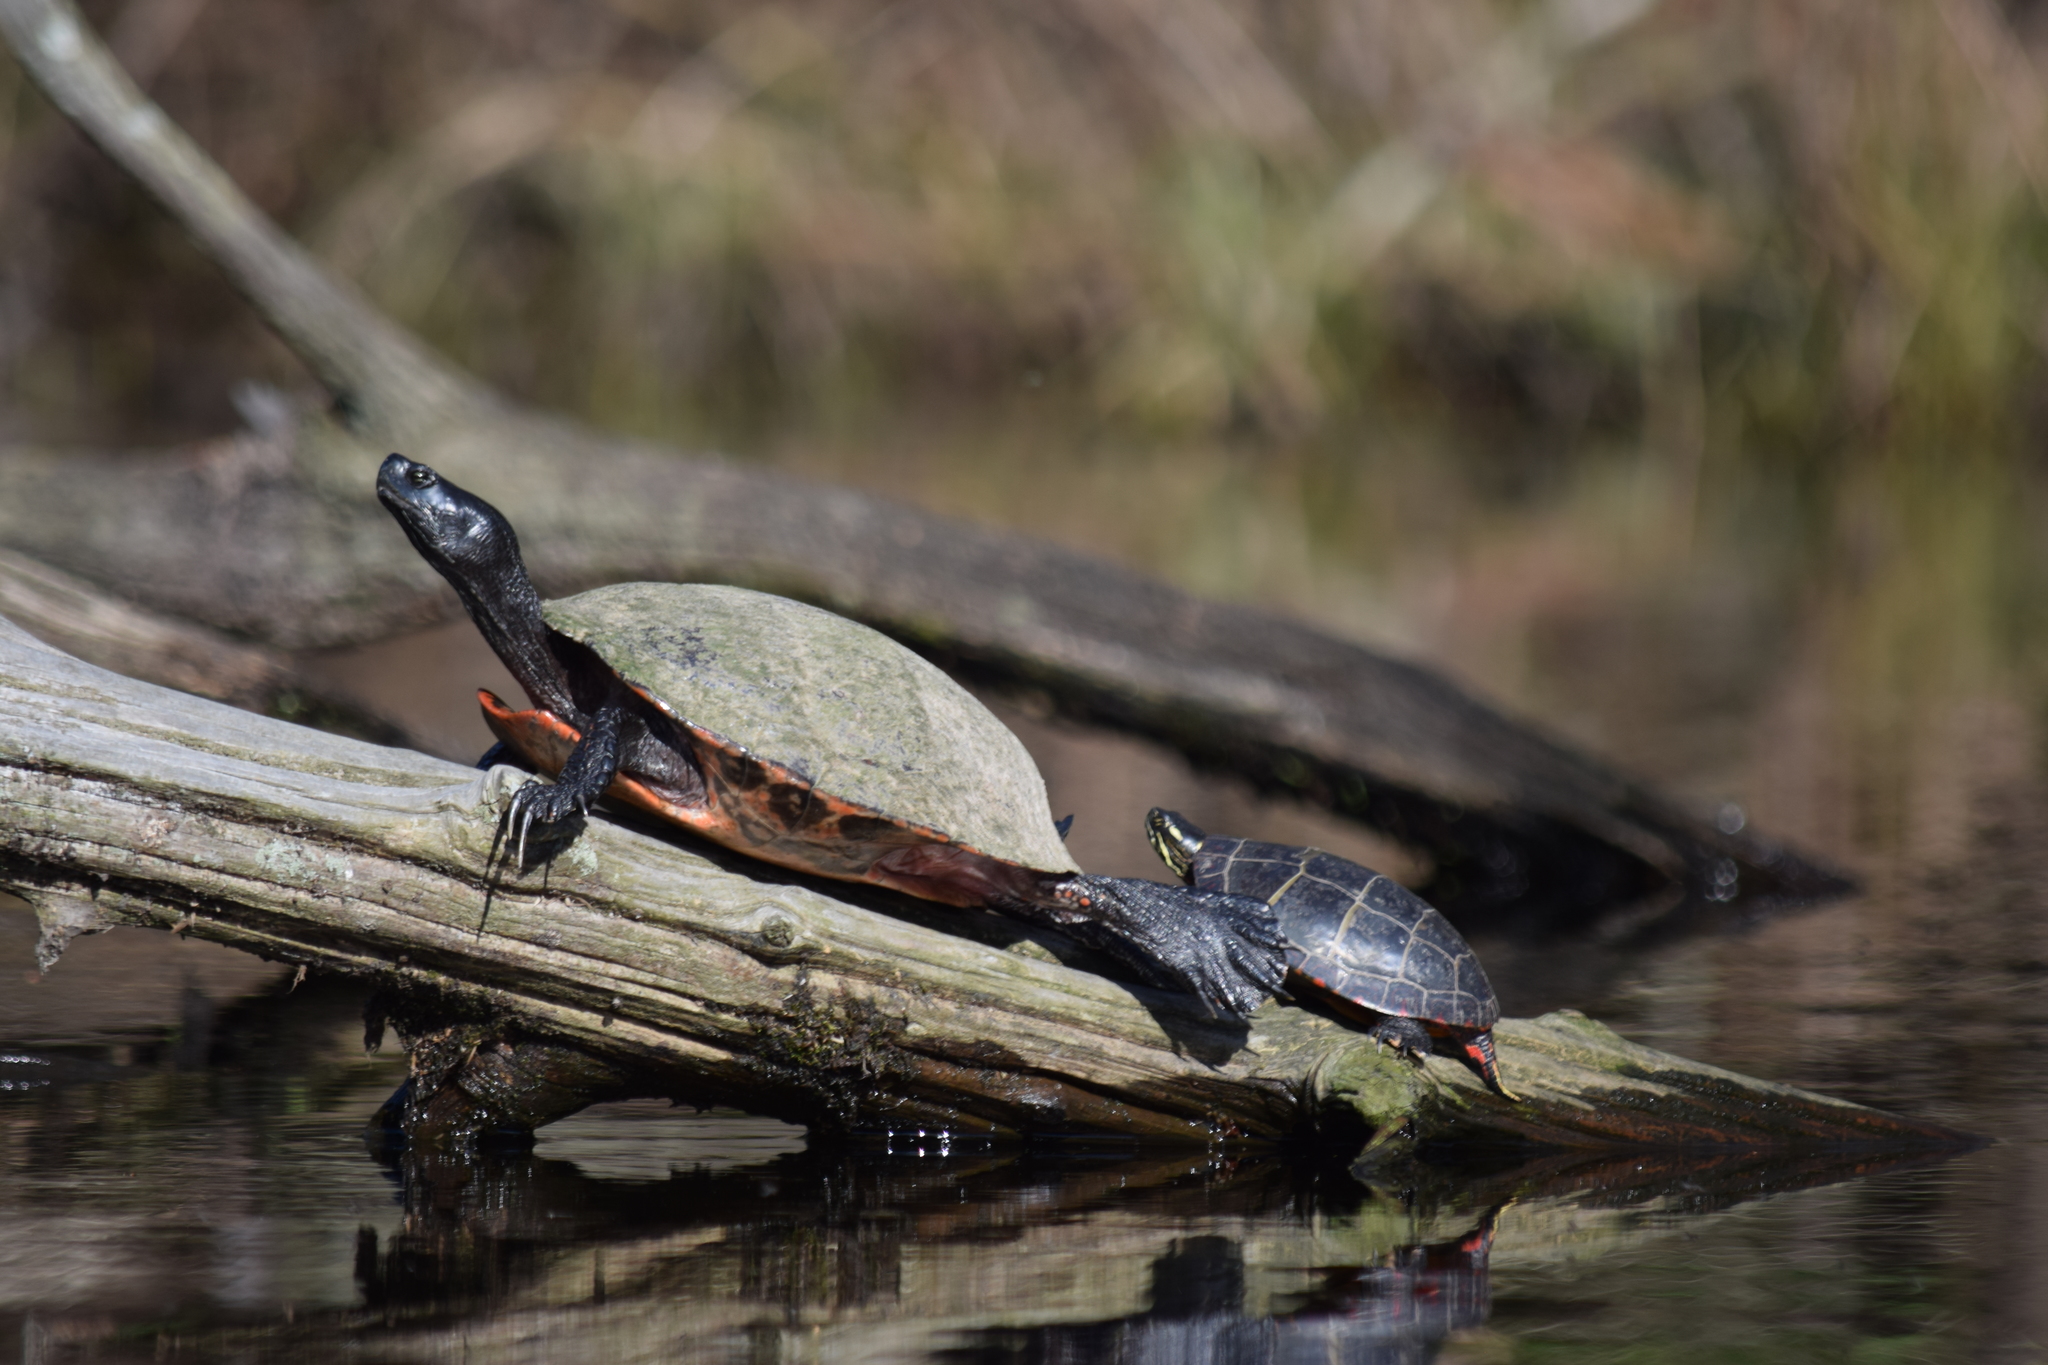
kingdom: Animalia
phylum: Chordata
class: Testudines
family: Emydidae
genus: Pseudemys
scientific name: Pseudemys rubriventris
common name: American red-bellied turtle
